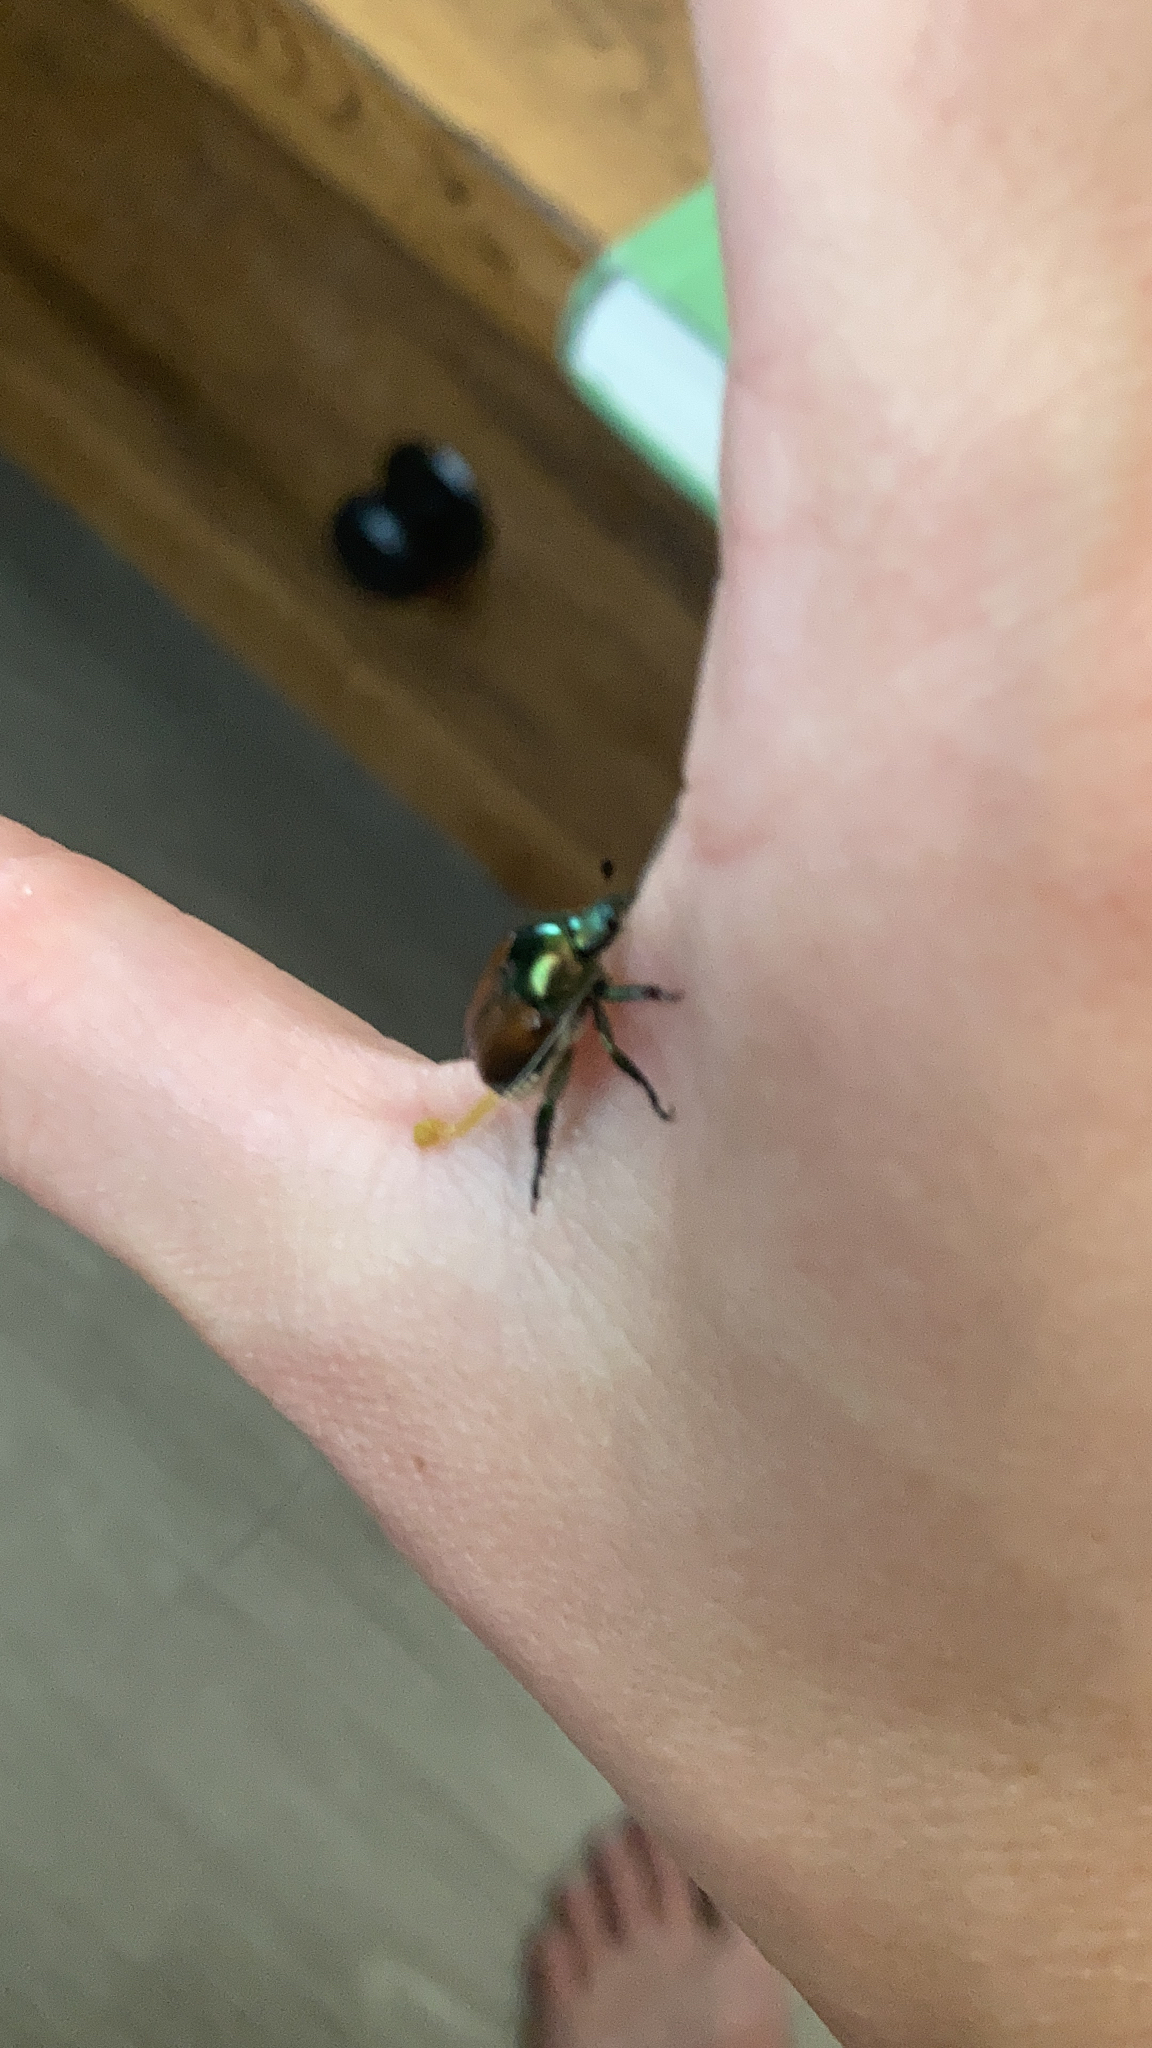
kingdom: Animalia
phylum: Arthropoda
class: Insecta
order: Coleoptera
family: Scarabaeidae
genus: Popillia
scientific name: Popillia japonica
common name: Japanese beetle
